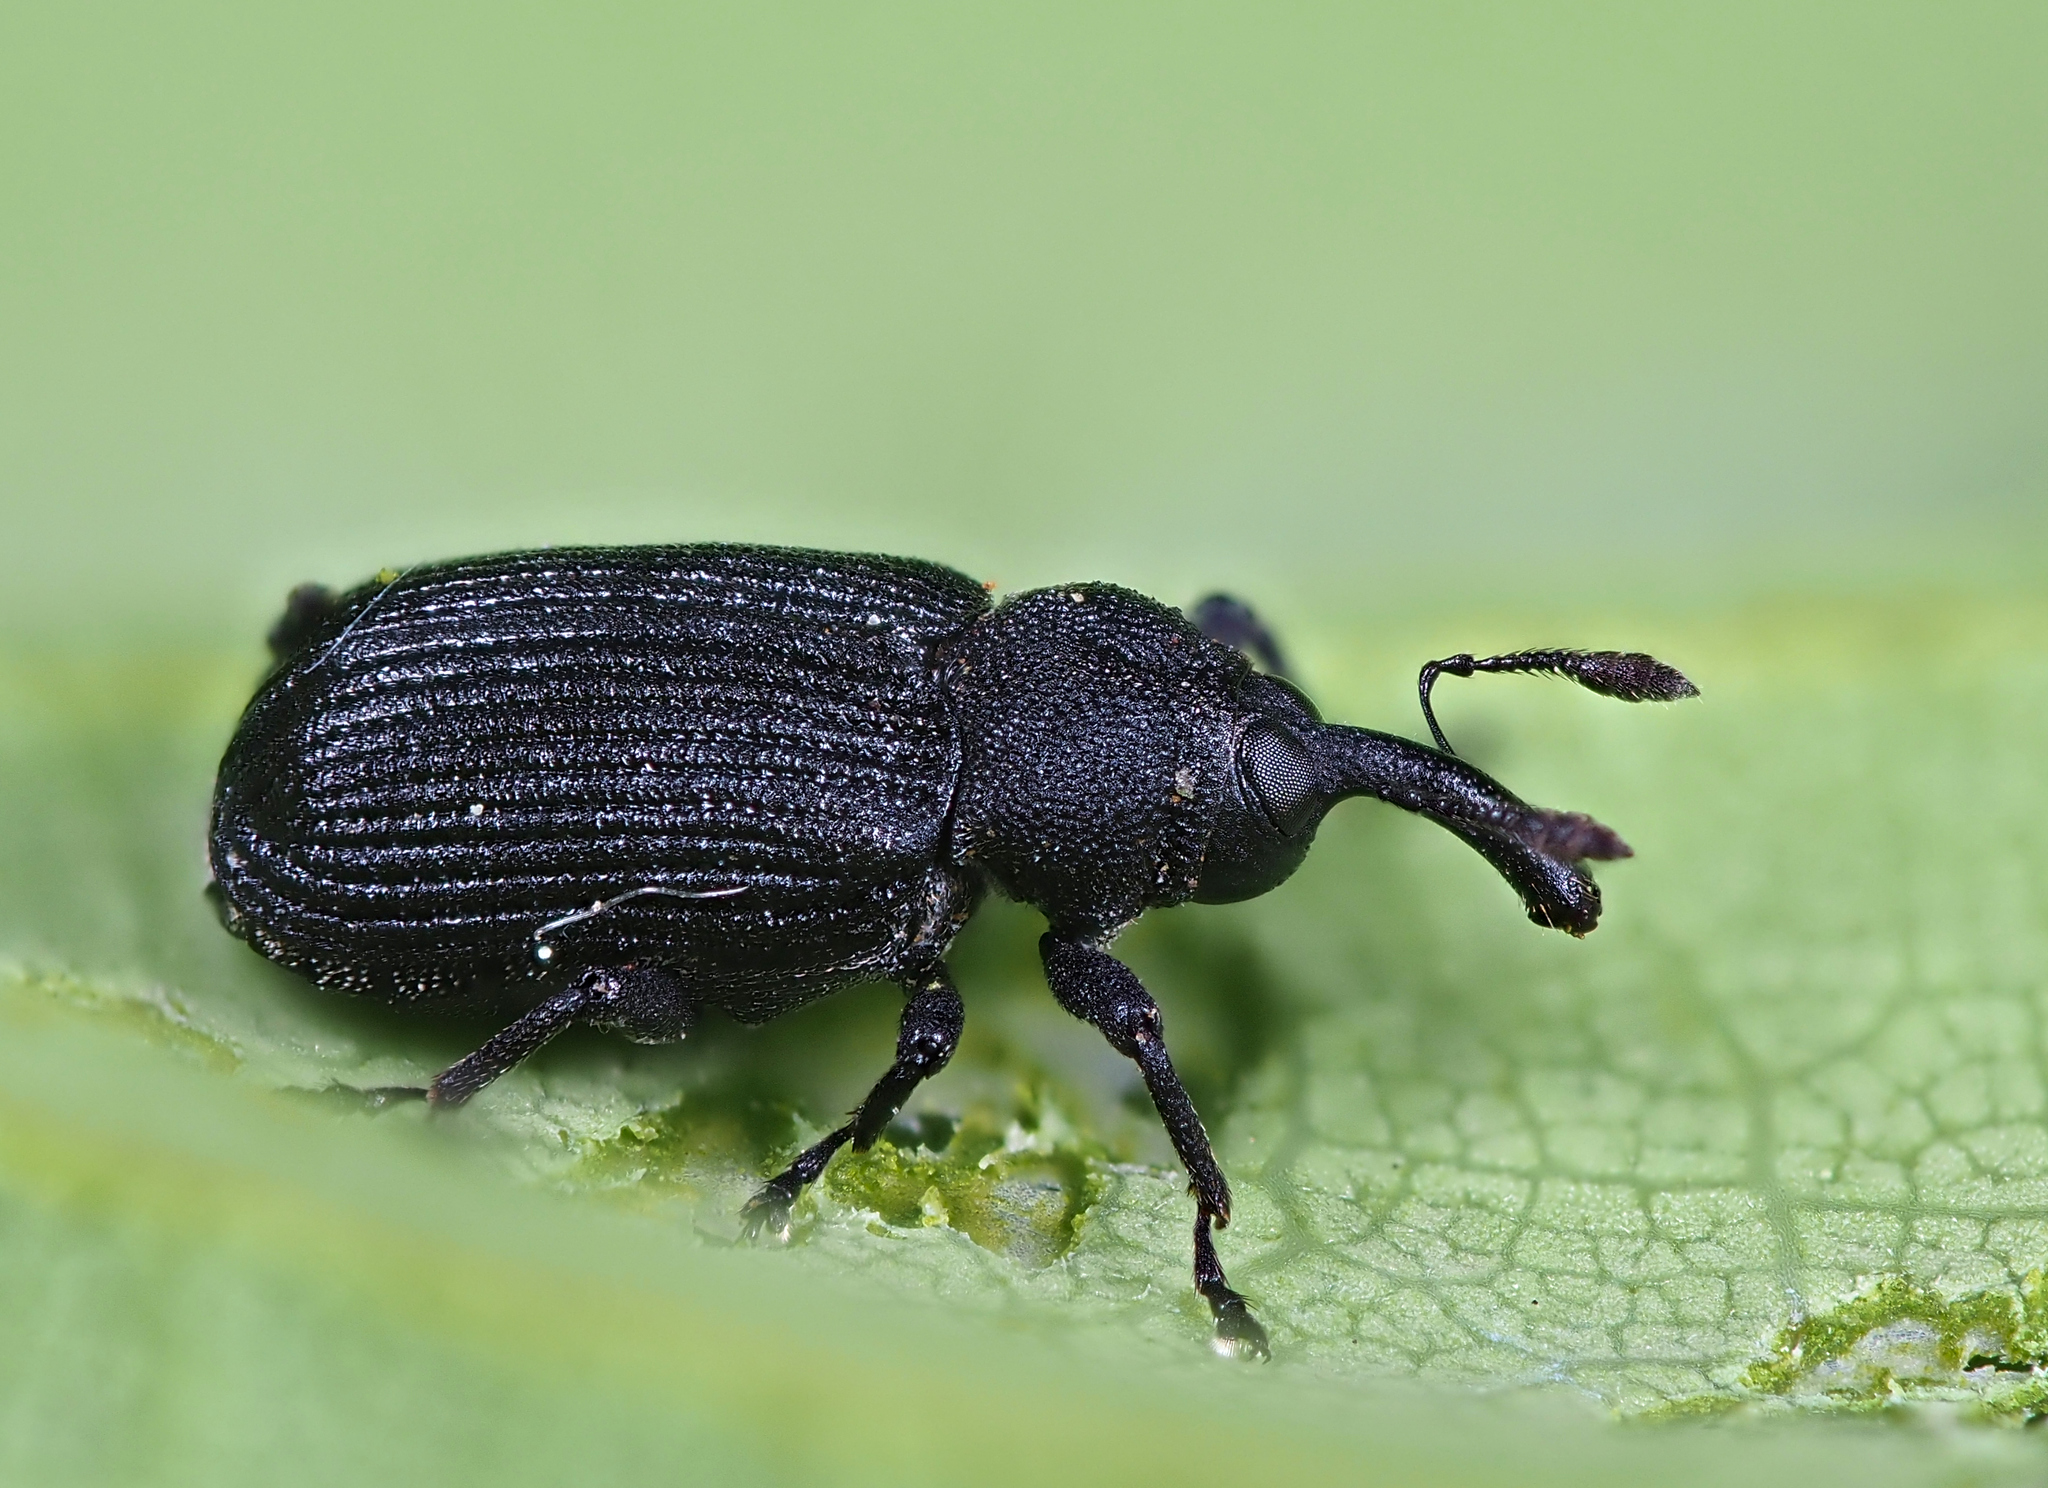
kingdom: Animalia
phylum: Arthropoda
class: Insecta
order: Coleoptera
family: Curculionidae
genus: Magdalis
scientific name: Magdalis cerasi
